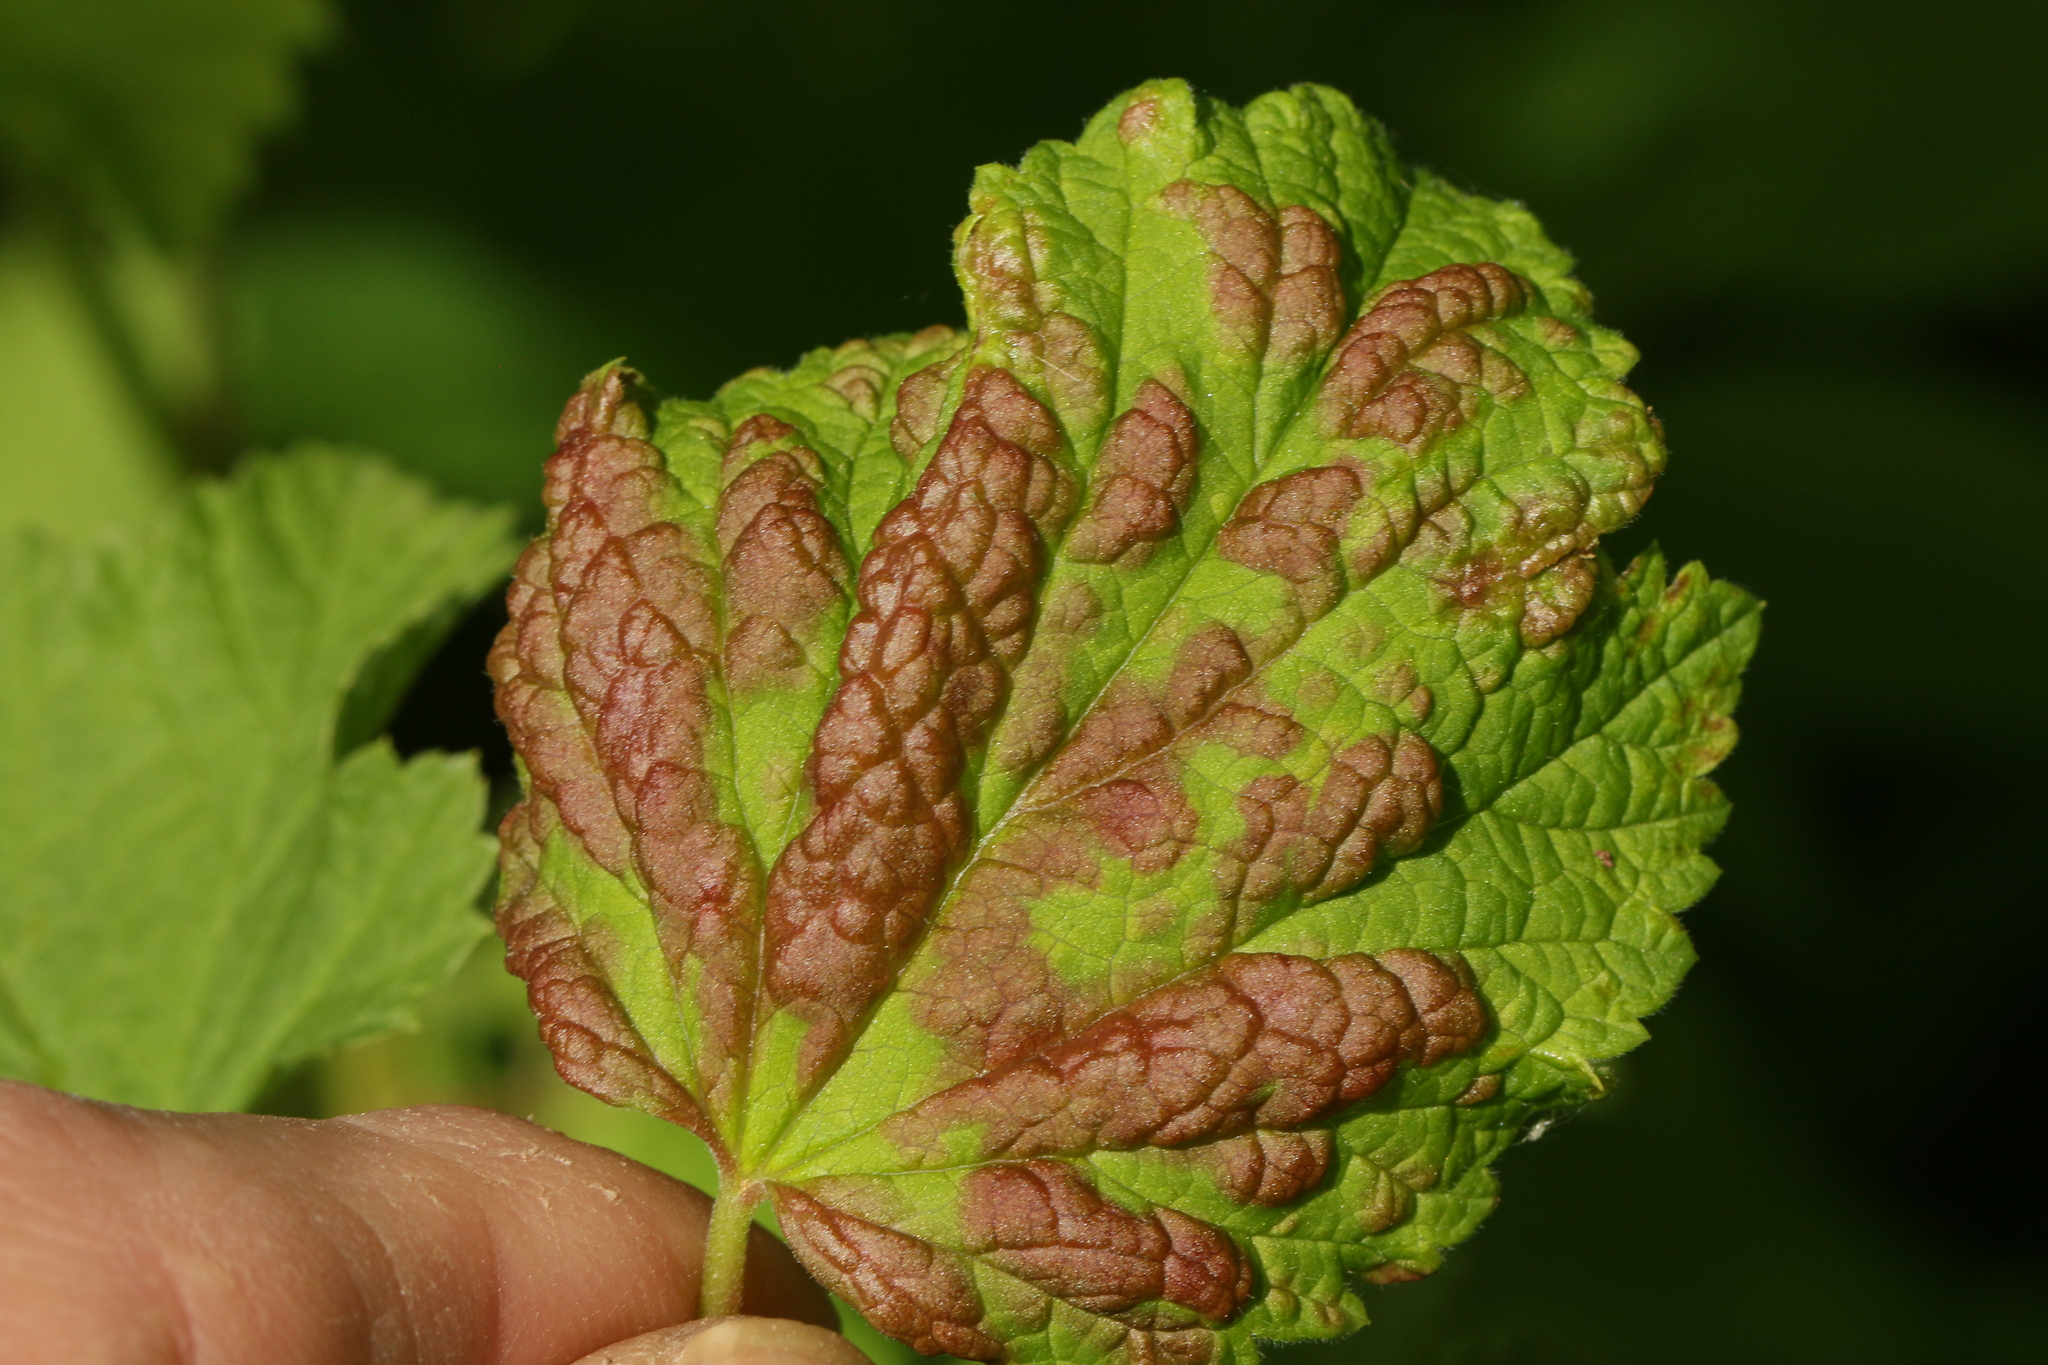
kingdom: Animalia
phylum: Arthropoda
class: Insecta
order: Hemiptera
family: Aphididae
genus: Cryptomyzus
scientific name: Cryptomyzus ribis
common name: Currant aphid
